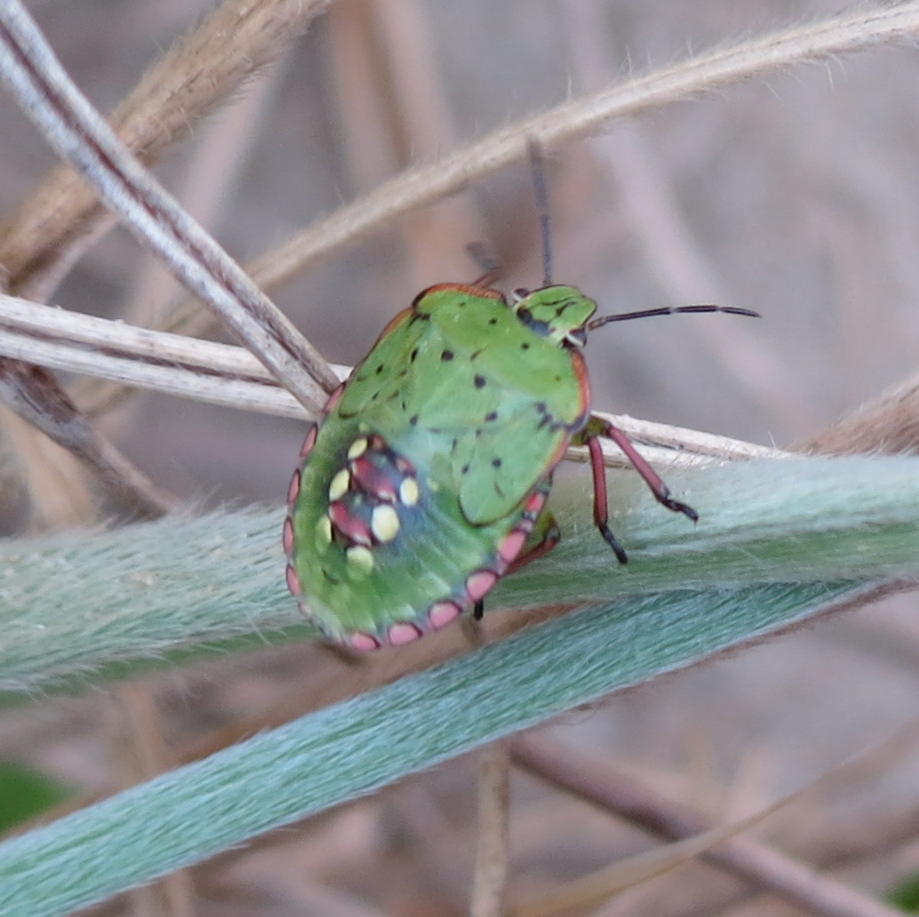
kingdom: Animalia
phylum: Arthropoda
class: Insecta
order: Hemiptera
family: Pentatomidae
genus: Nezara
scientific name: Nezara viridula
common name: Southern green stink bug
